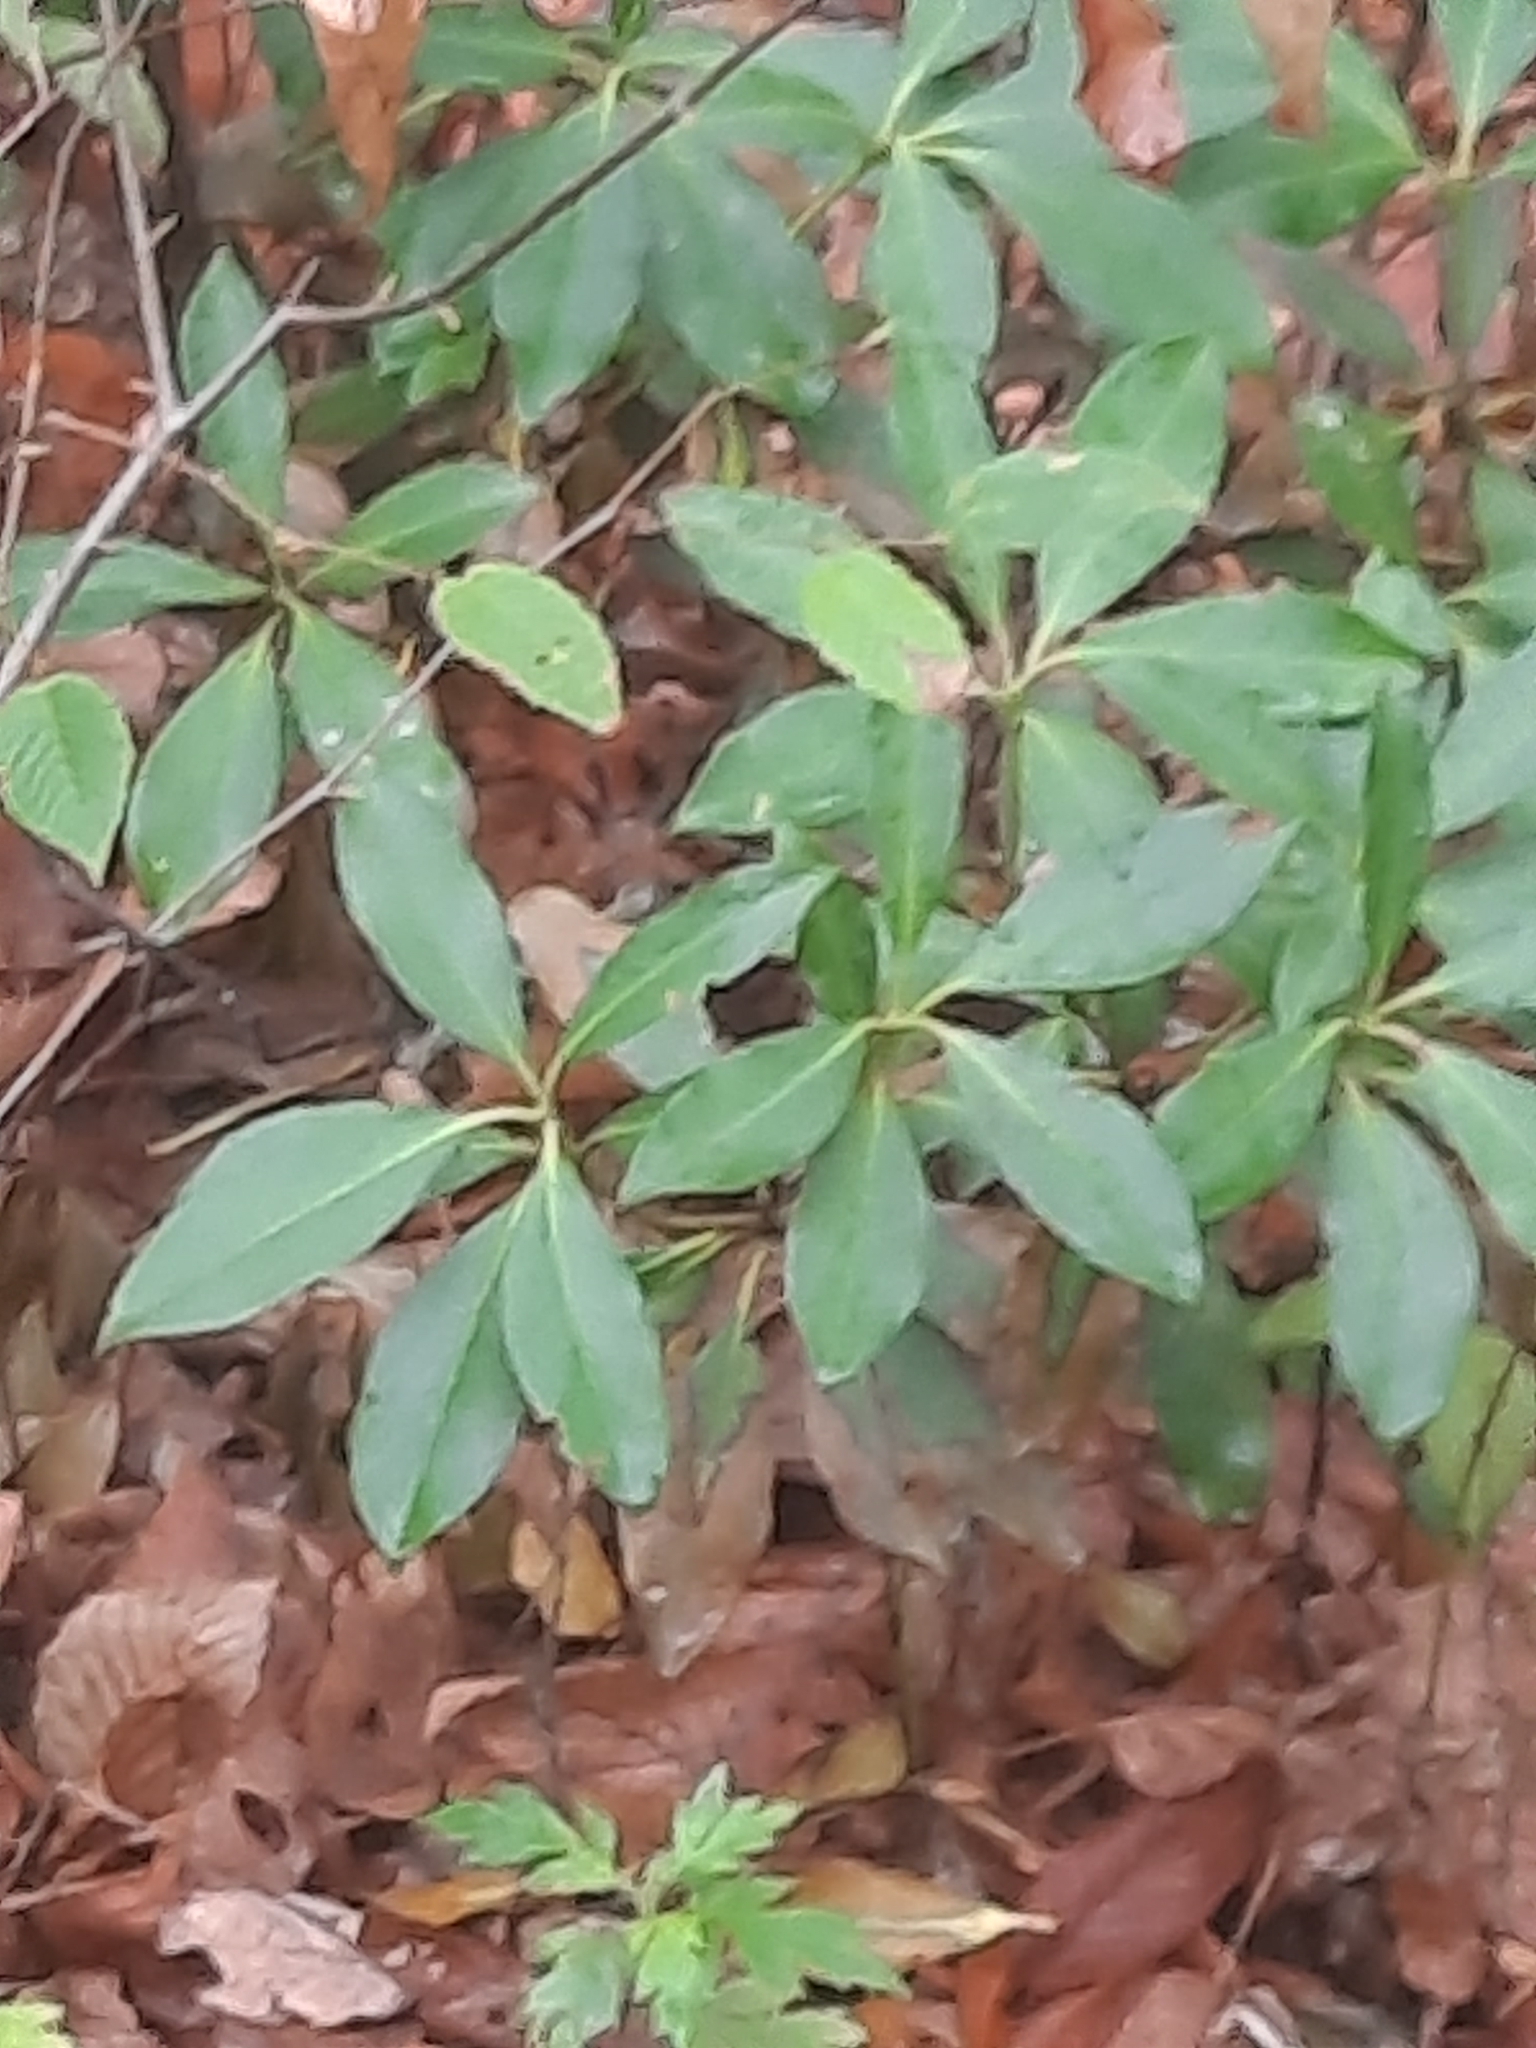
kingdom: Plantae
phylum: Tracheophyta
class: Magnoliopsida
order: Ericales
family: Ericaceae
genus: Kalmia
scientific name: Kalmia latifolia
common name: Mountain-laurel
